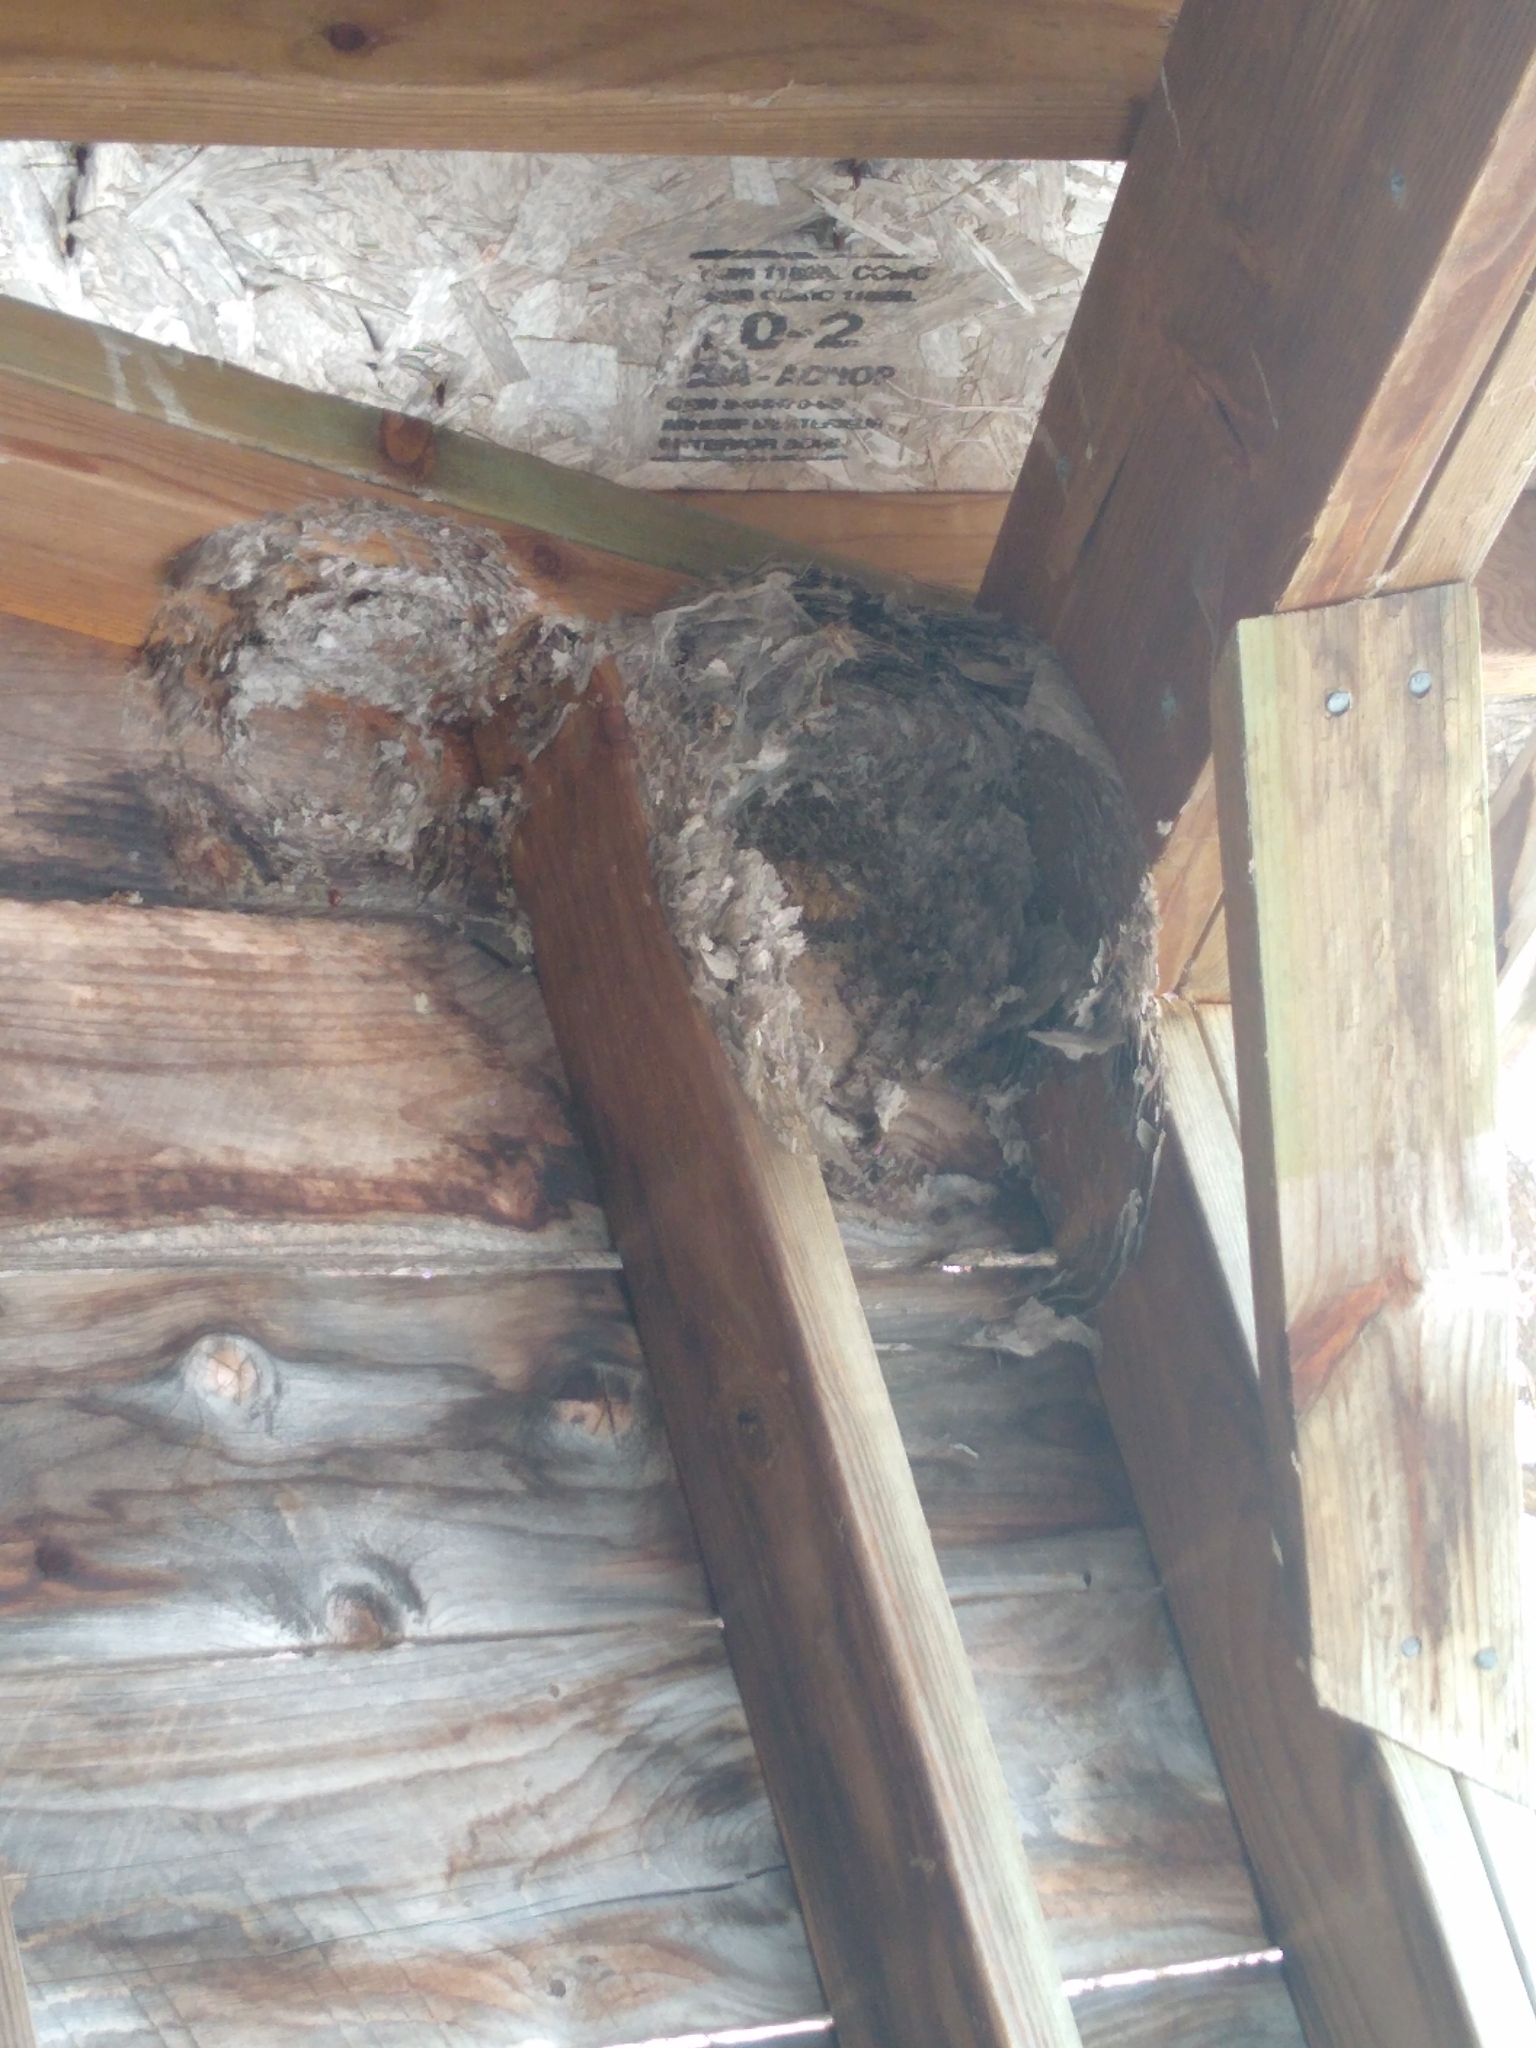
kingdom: Animalia
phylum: Arthropoda
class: Insecta
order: Hymenoptera
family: Vespidae
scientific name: Vespidae
